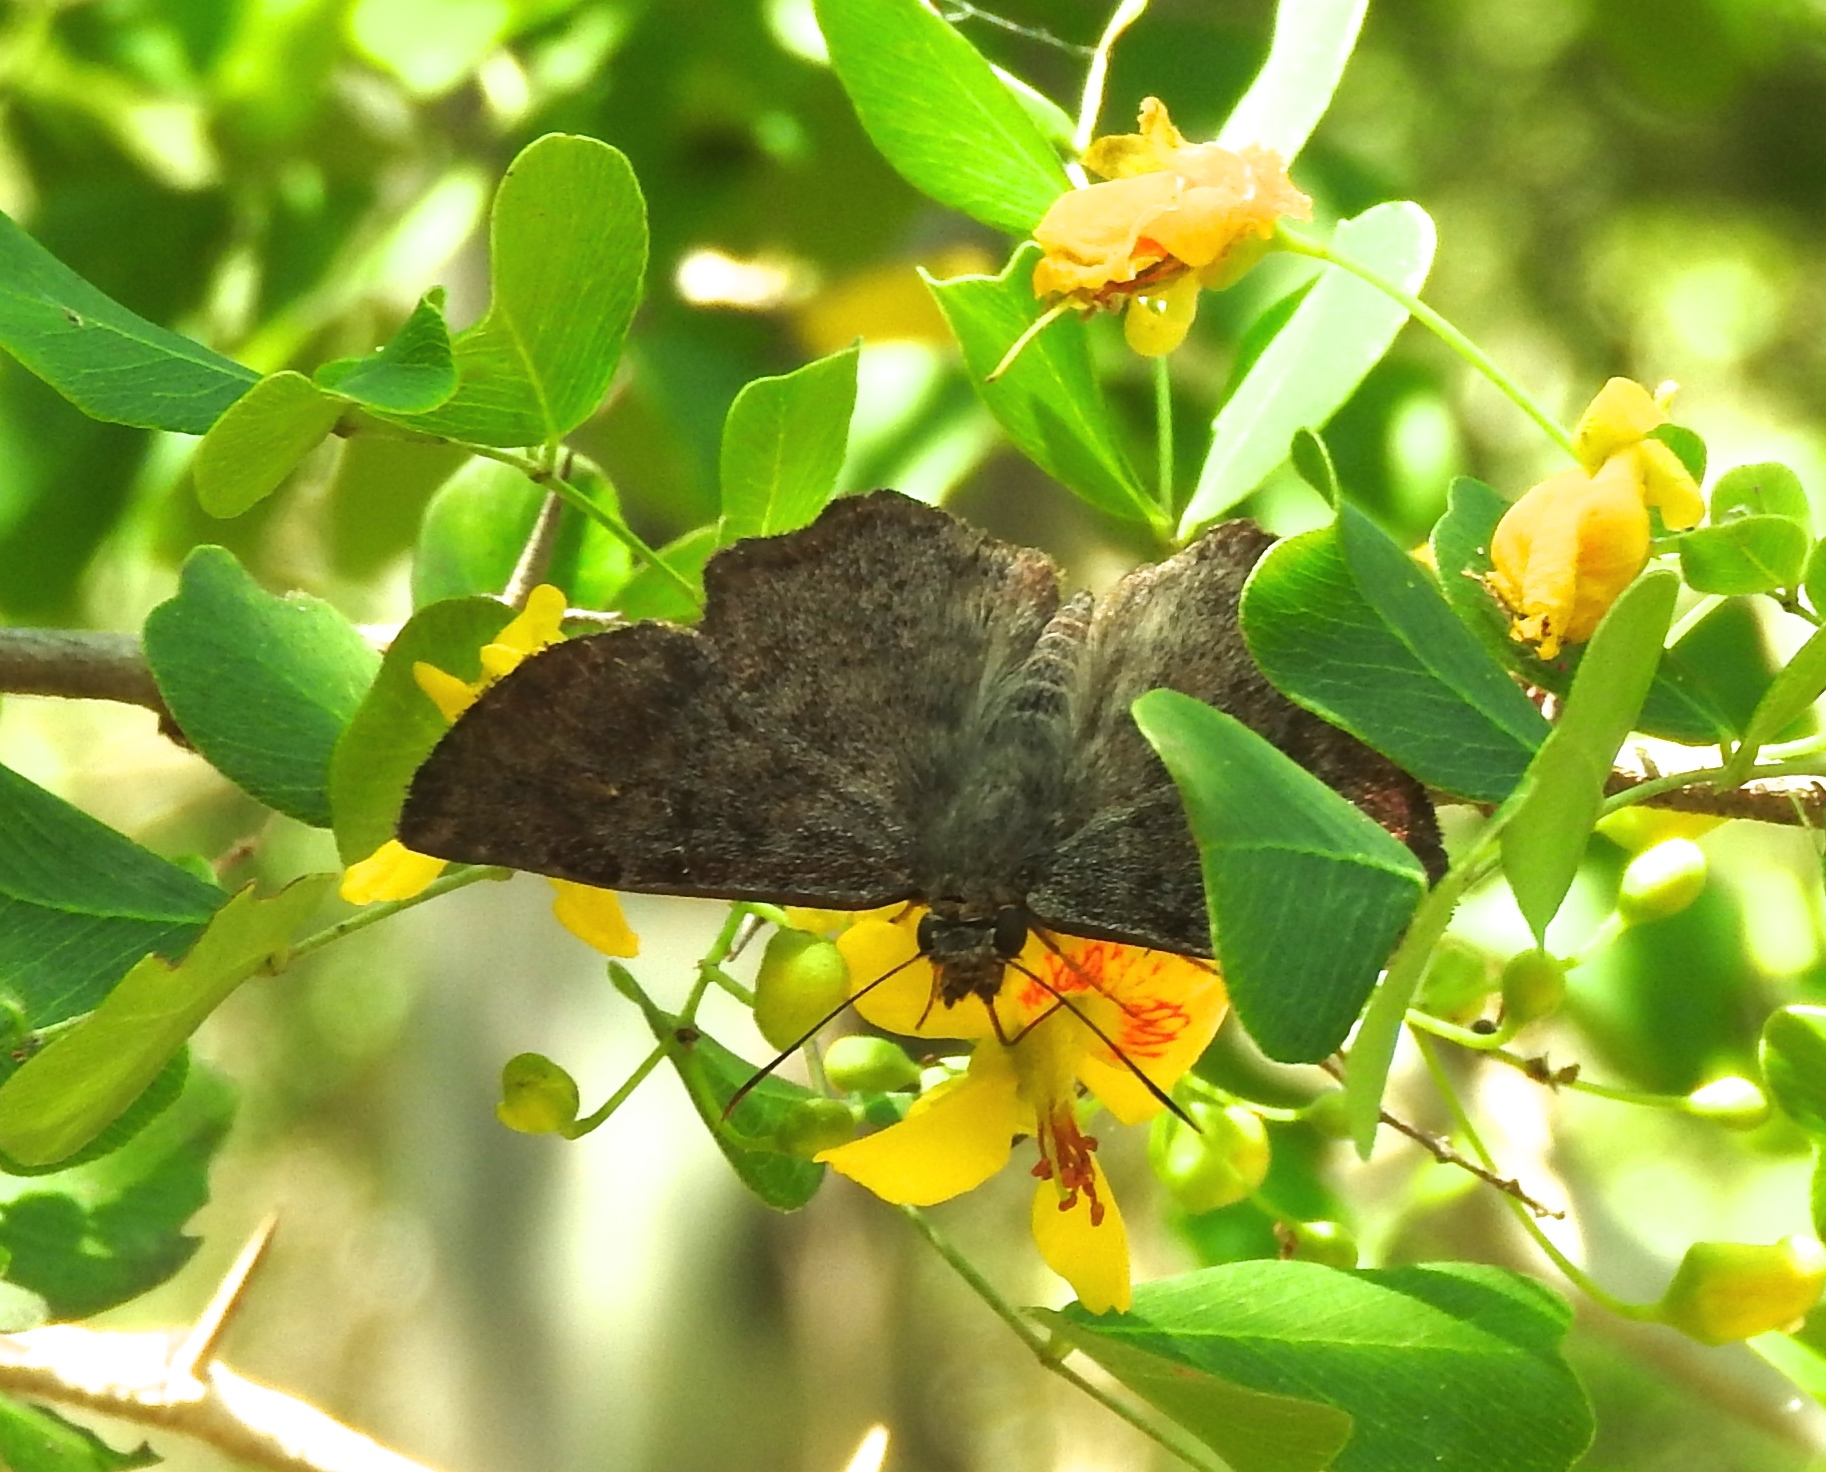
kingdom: Animalia
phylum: Arthropoda
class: Insecta
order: Lepidoptera
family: Hesperiidae
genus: Antigonus
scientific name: Antigonus erosus
